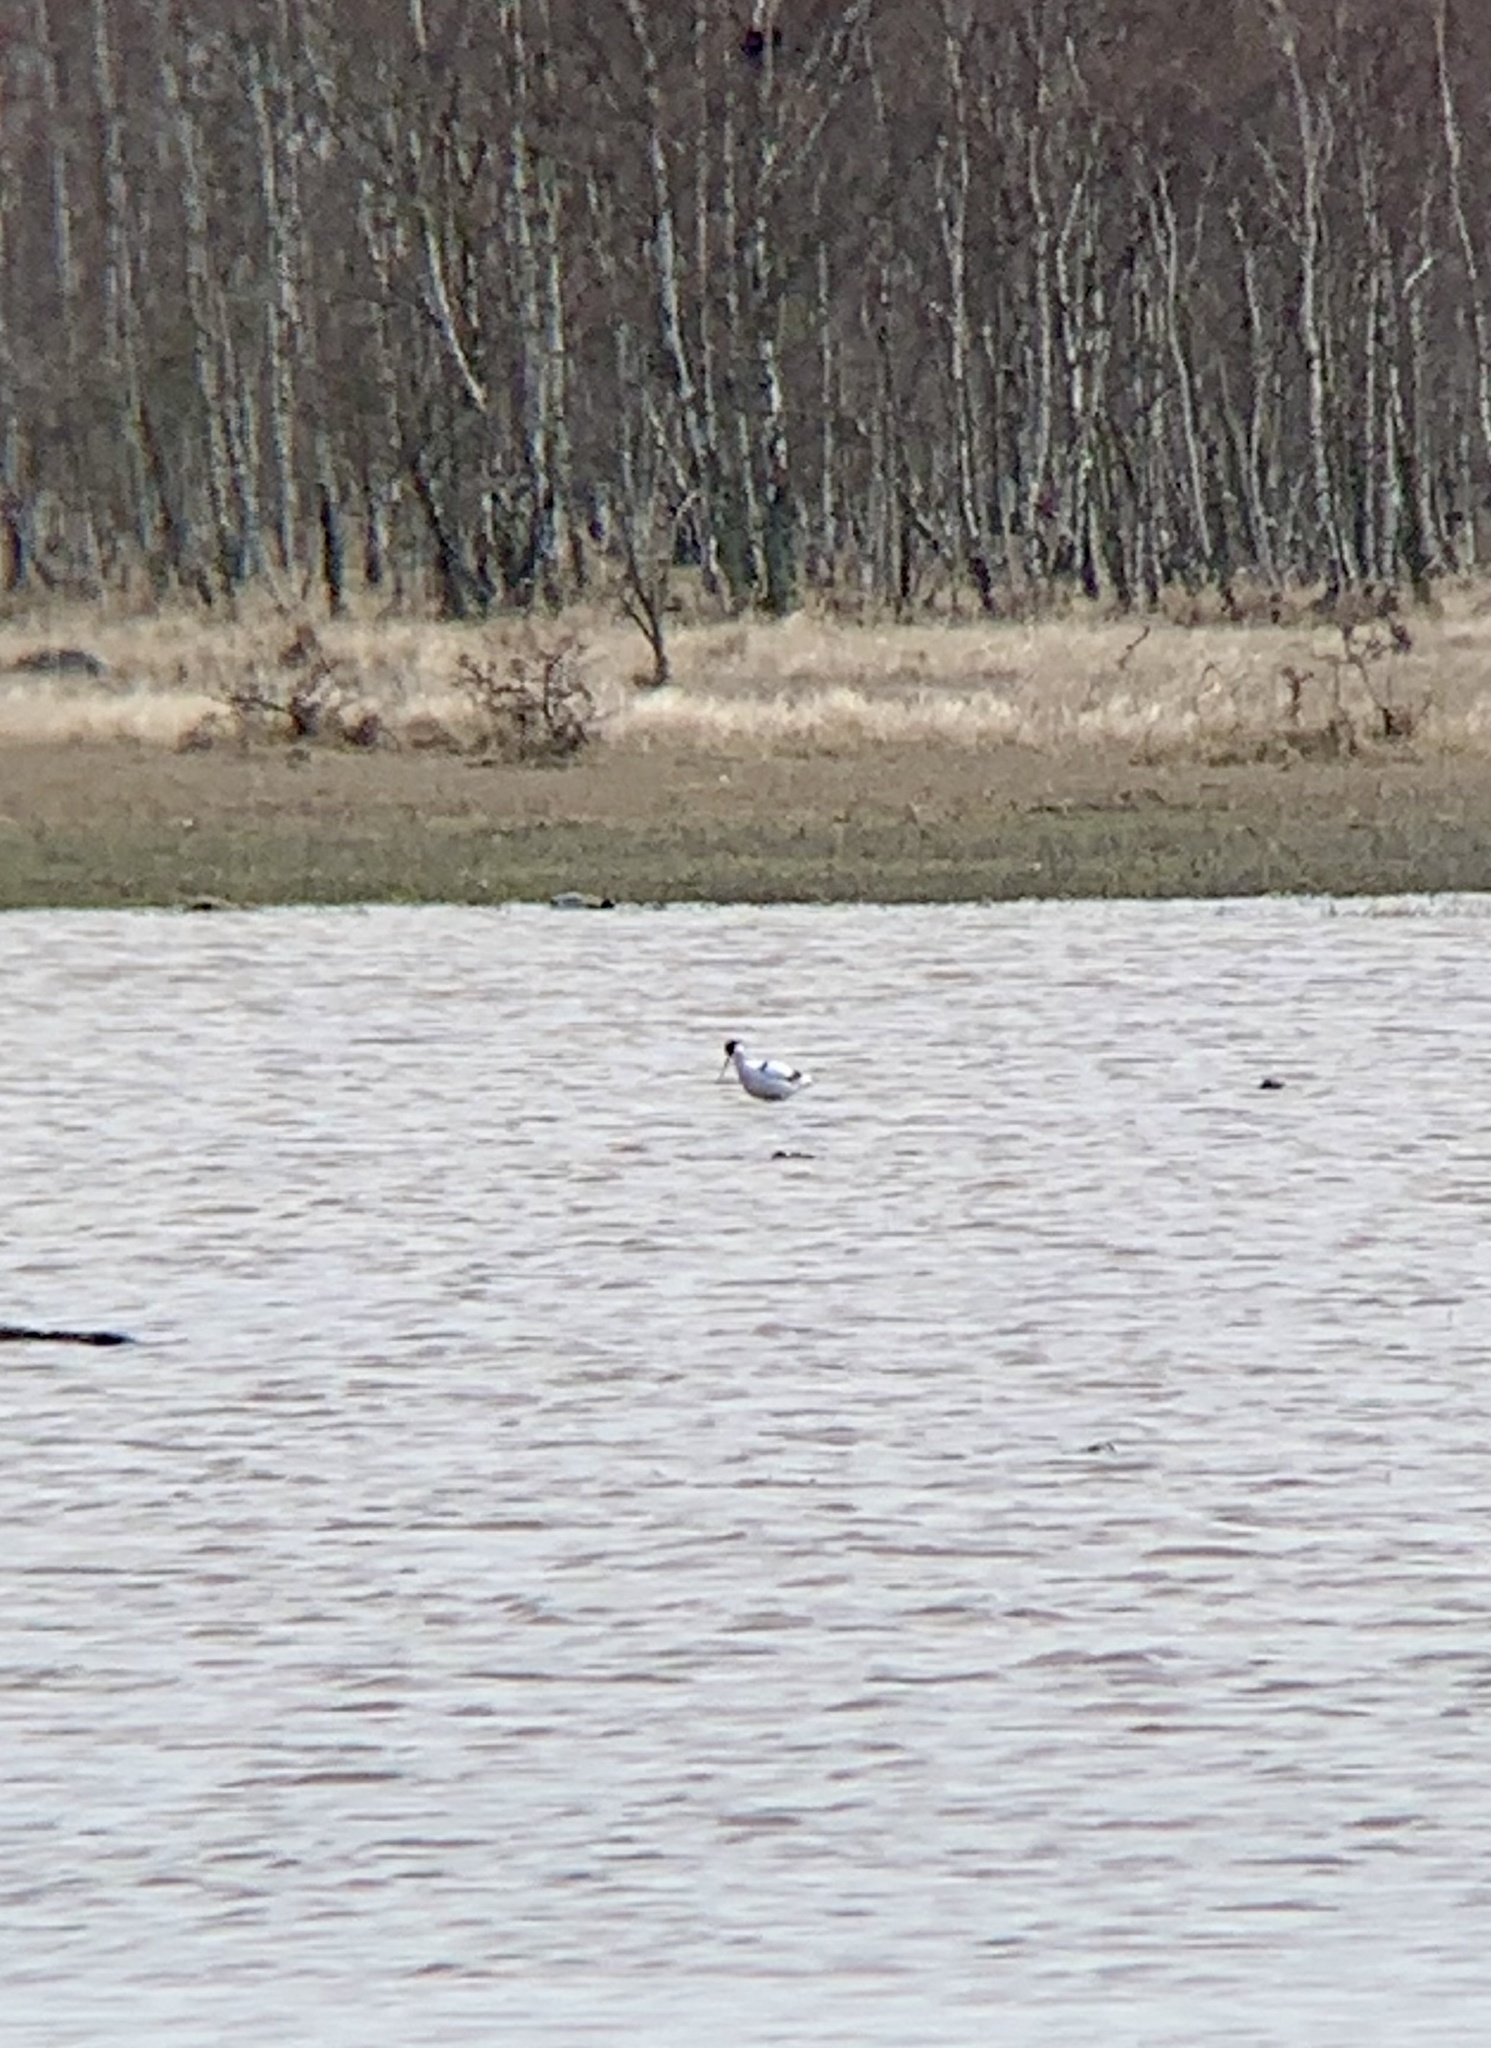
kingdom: Animalia
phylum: Chordata
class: Aves
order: Charadriiformes
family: Recurvirostridae
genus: Recurvirostra
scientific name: Recurvirostra avosetta
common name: Pied avocet
